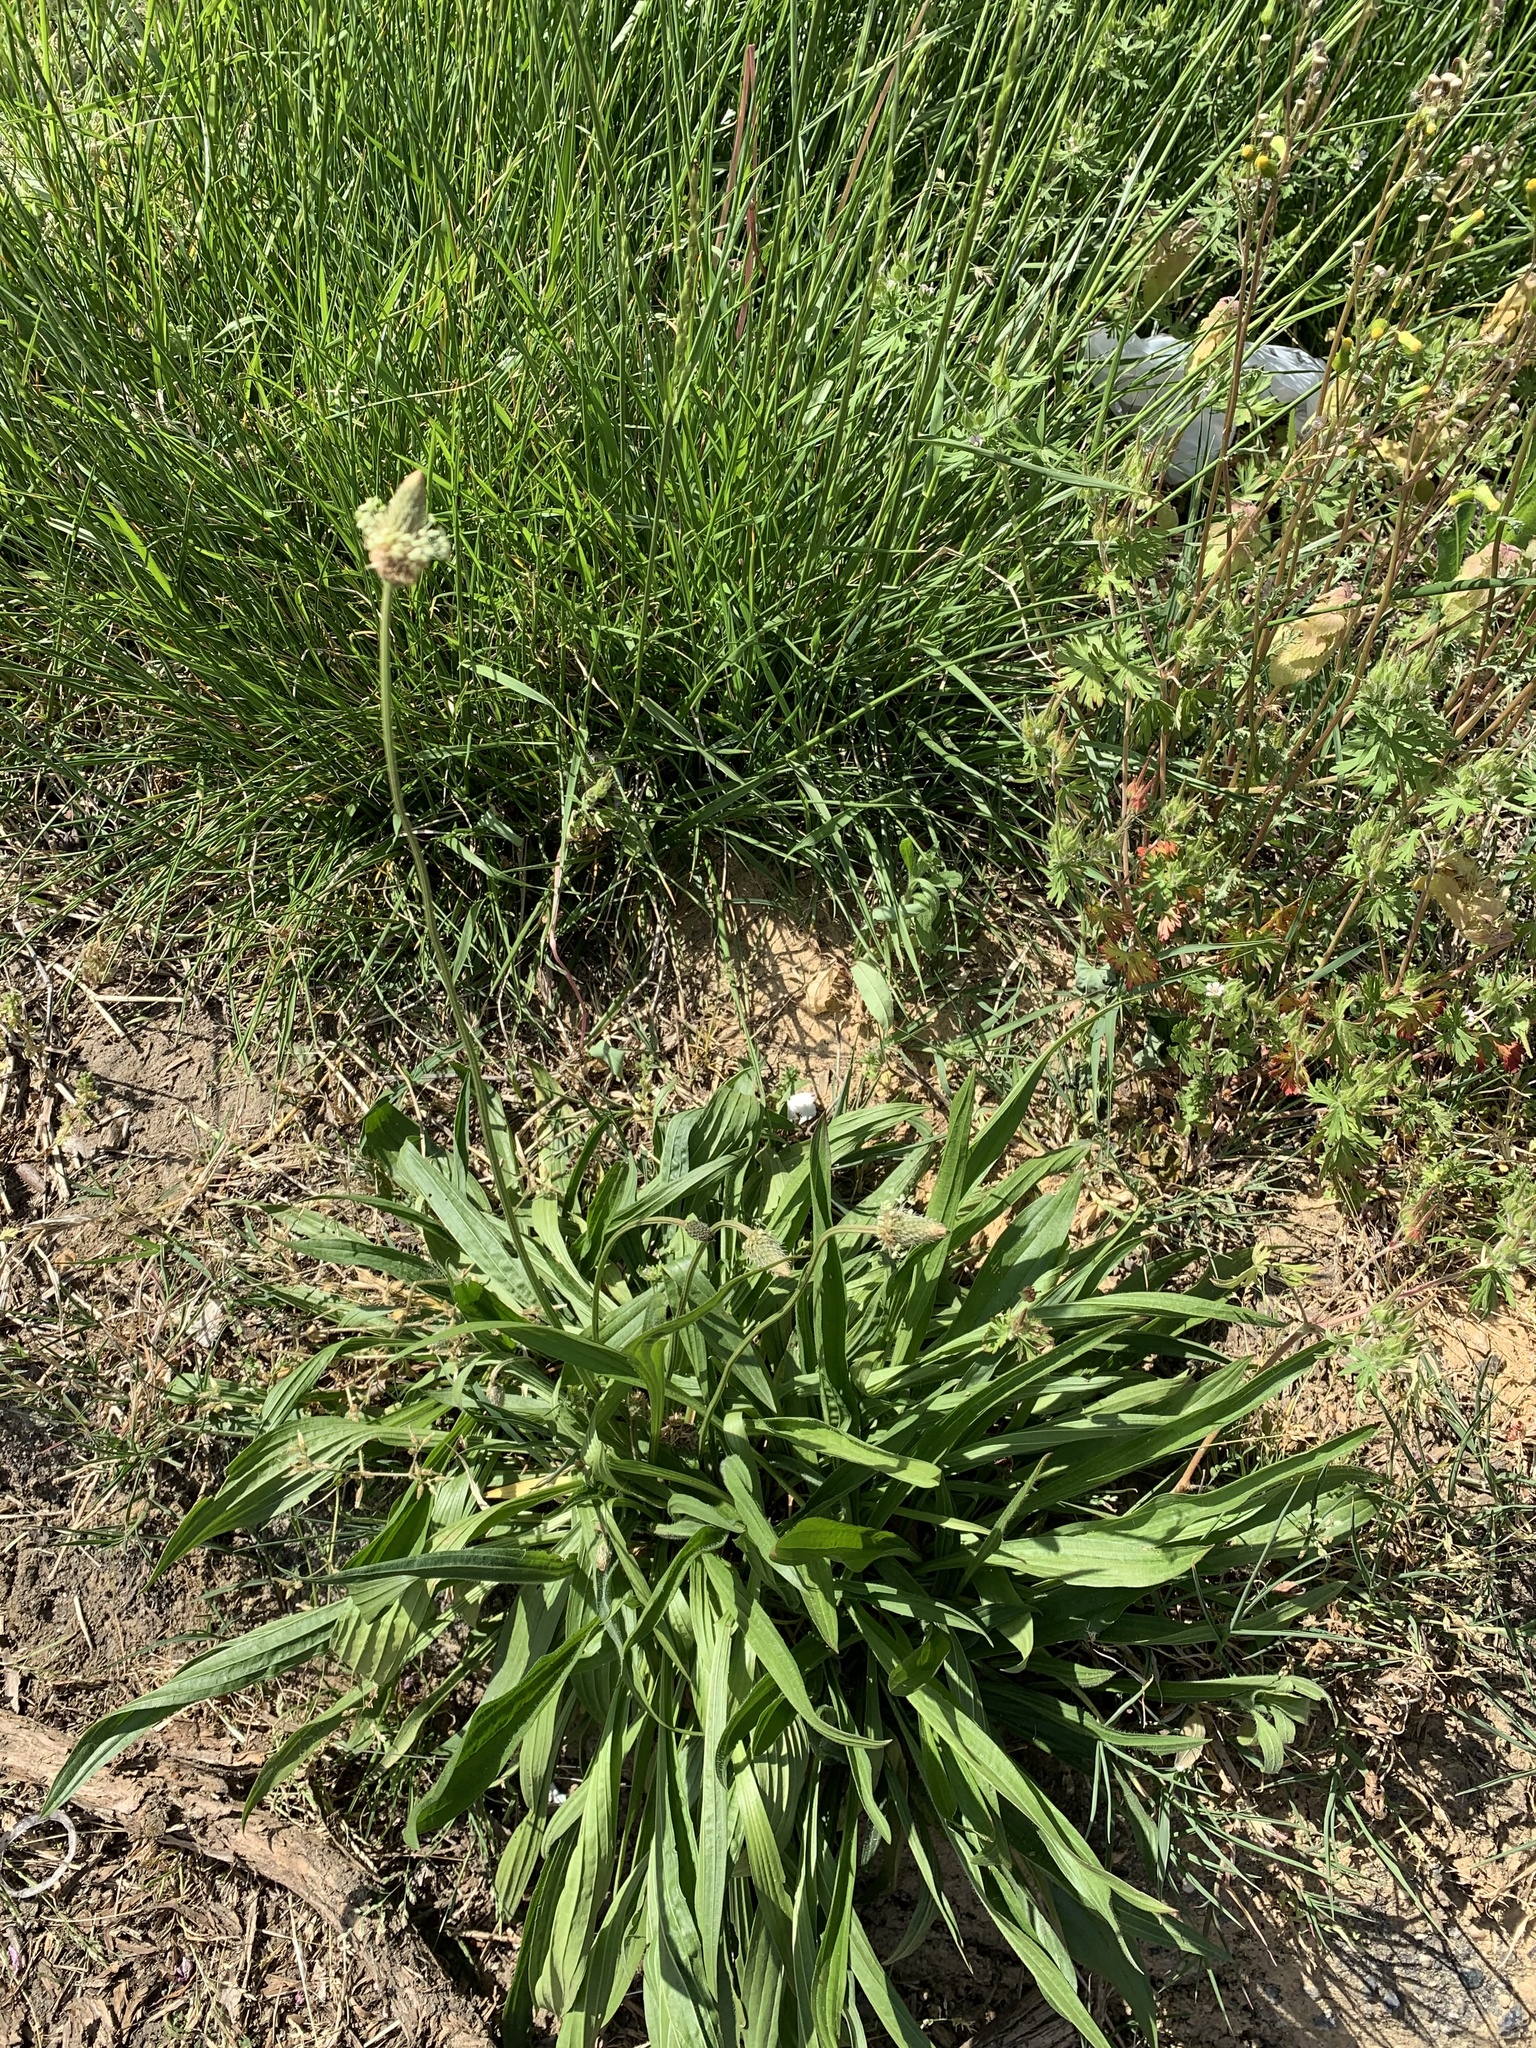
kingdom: Plantae
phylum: Tracheophyta
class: Magnoliopsida
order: Lamiales
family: Plantaginaceae
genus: Plantago
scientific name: Plantago lanceolata
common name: Ribwort plantain
